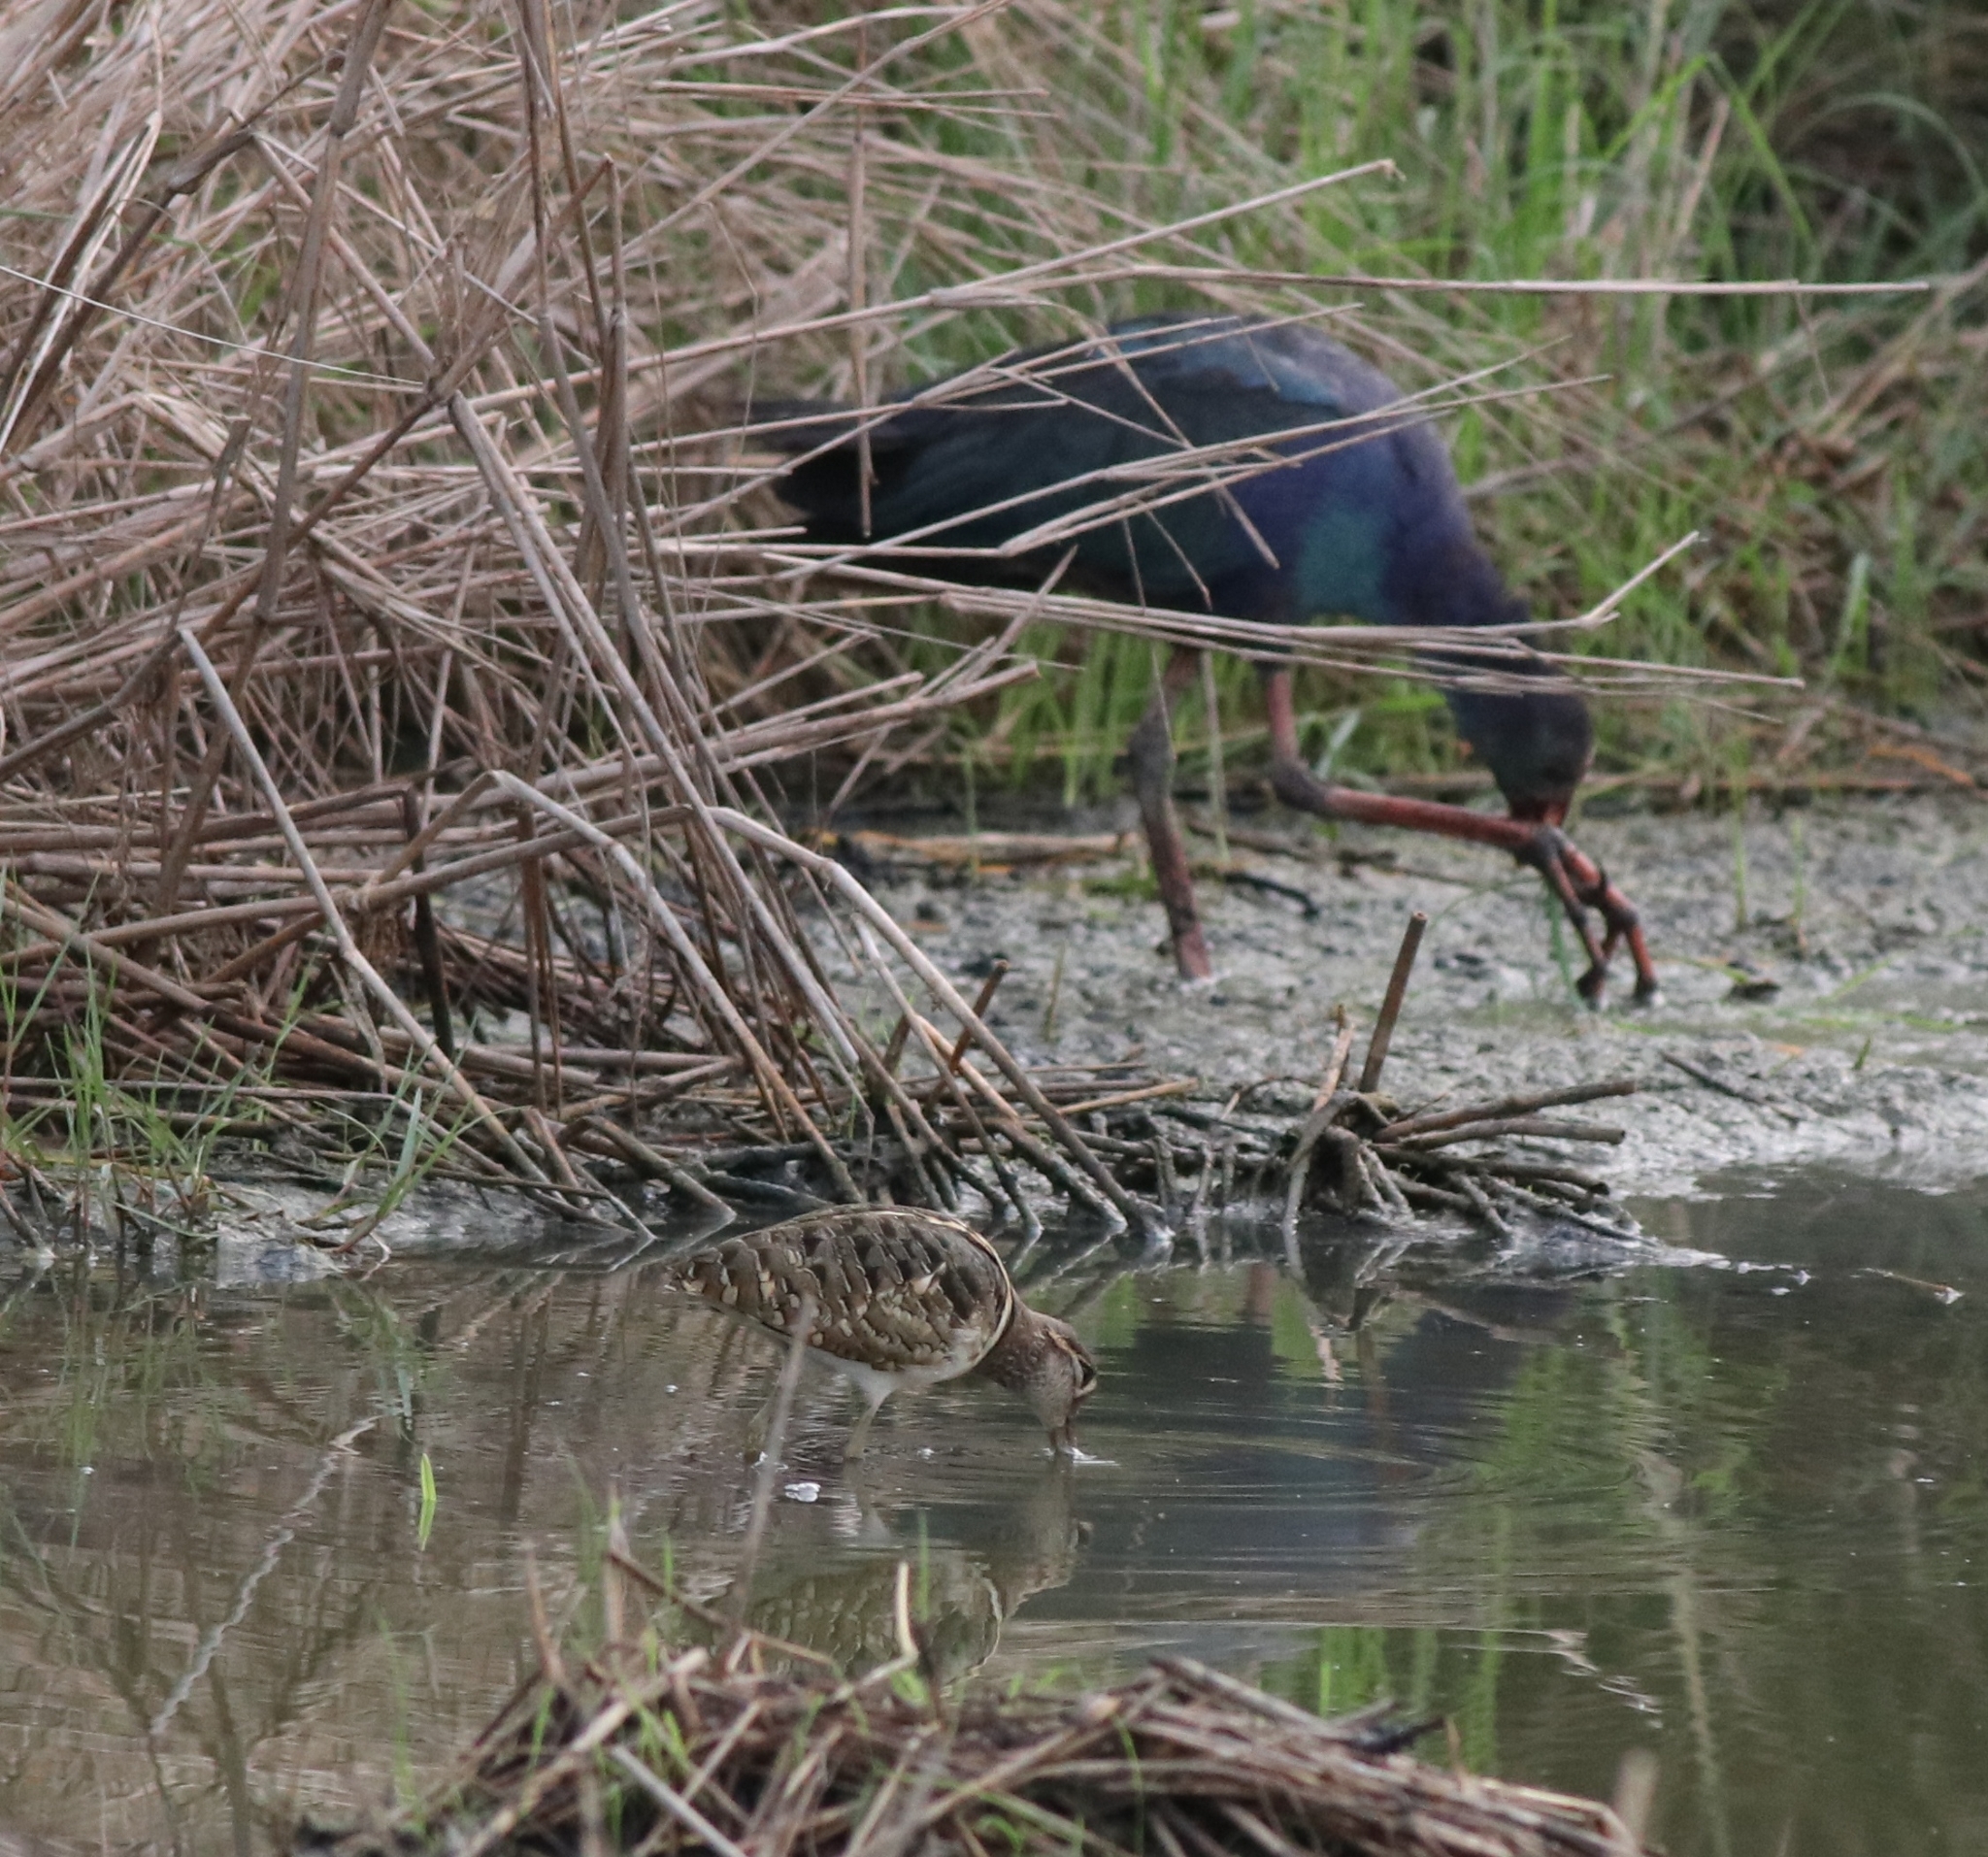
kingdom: Animalia
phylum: Chordata
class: Aves
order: Gruiformes
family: Rallidae
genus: Porphyrio
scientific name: Porphyrio porphyrio
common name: Purple swamphen
